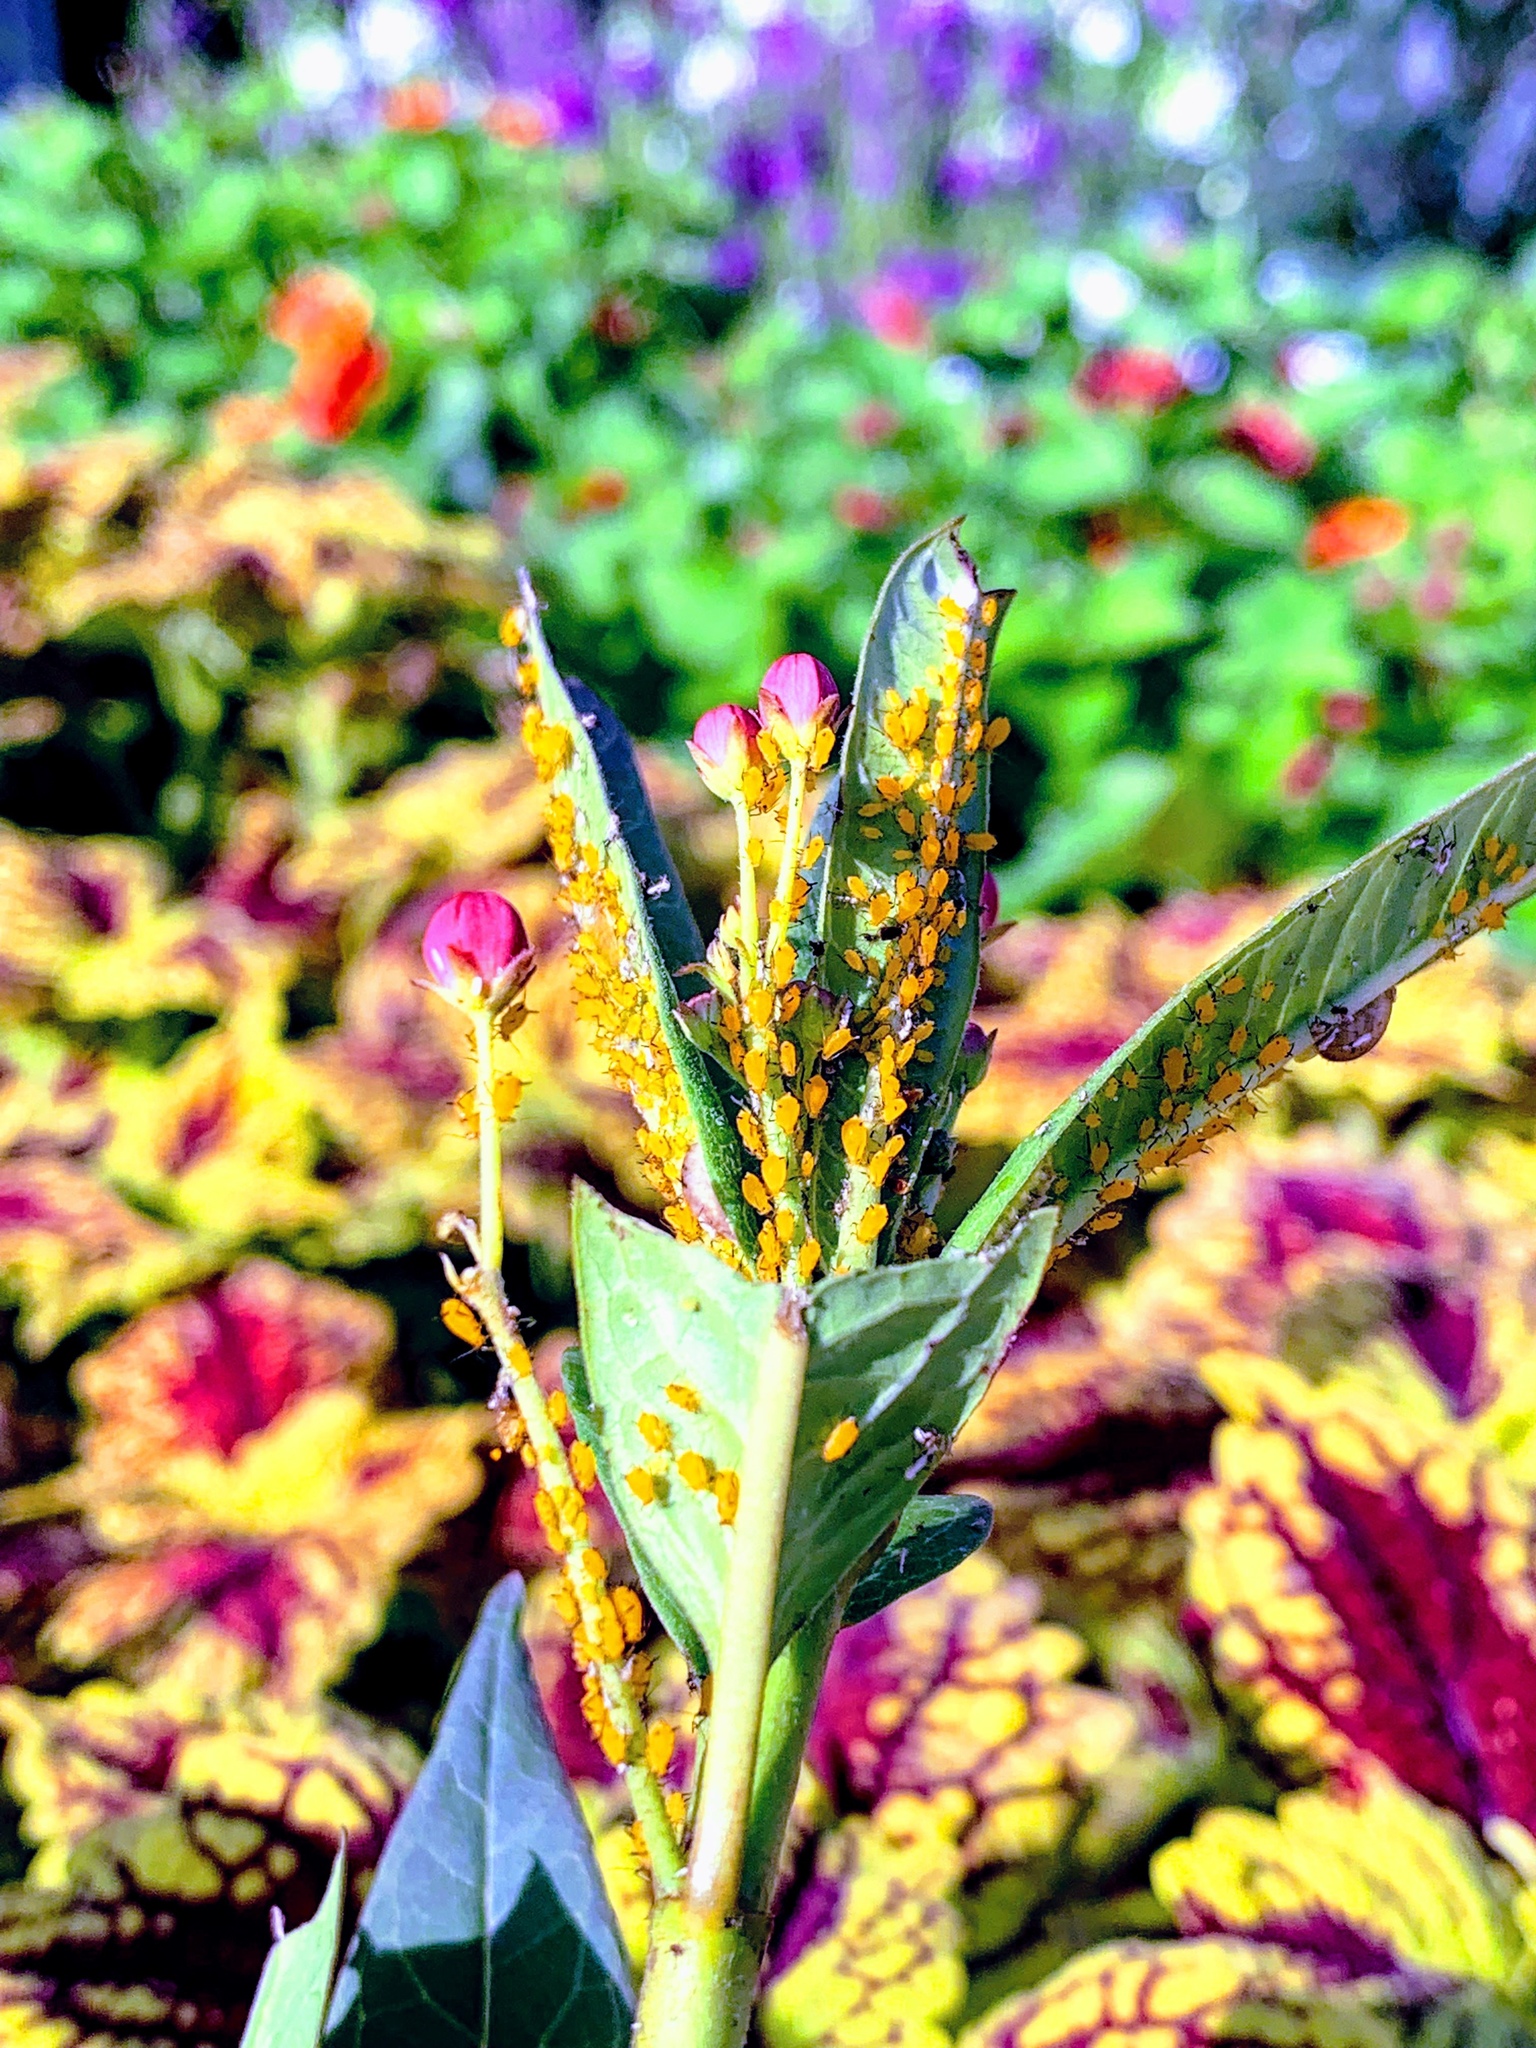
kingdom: Animalia
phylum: Arthropoda
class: Insecta
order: Hemiptera
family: Aphididae
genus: Aphis
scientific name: Aphis nerii
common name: Oleander aphid
